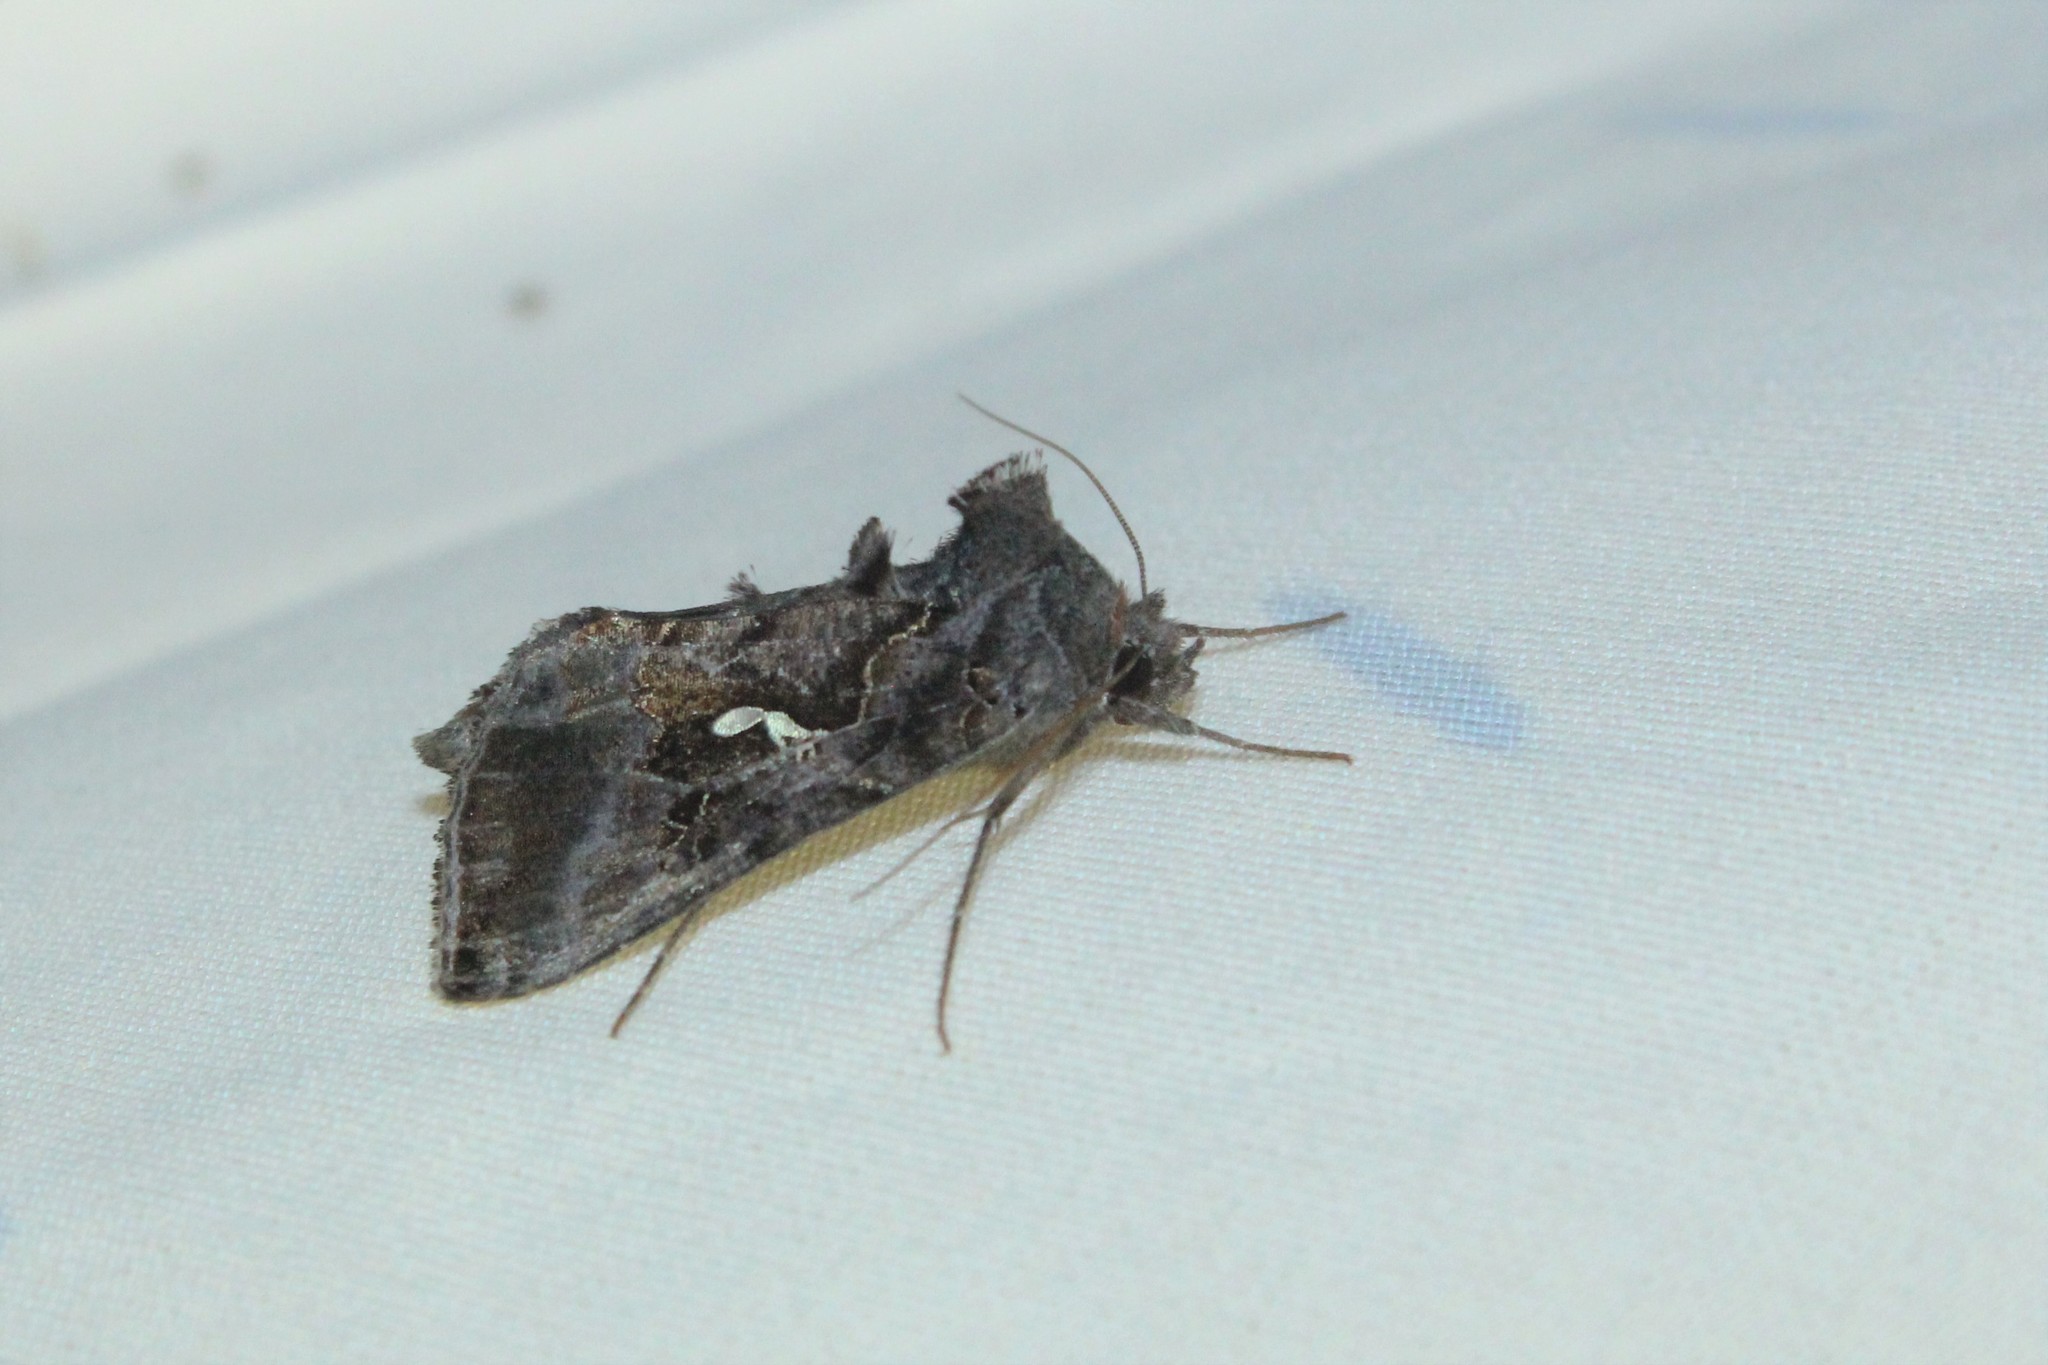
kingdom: Animalia
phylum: Arthropoda
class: Insecta
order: Lepidoptera
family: Noctuidae
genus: Autographa
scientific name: Autographa precationis
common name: Common looper moth
